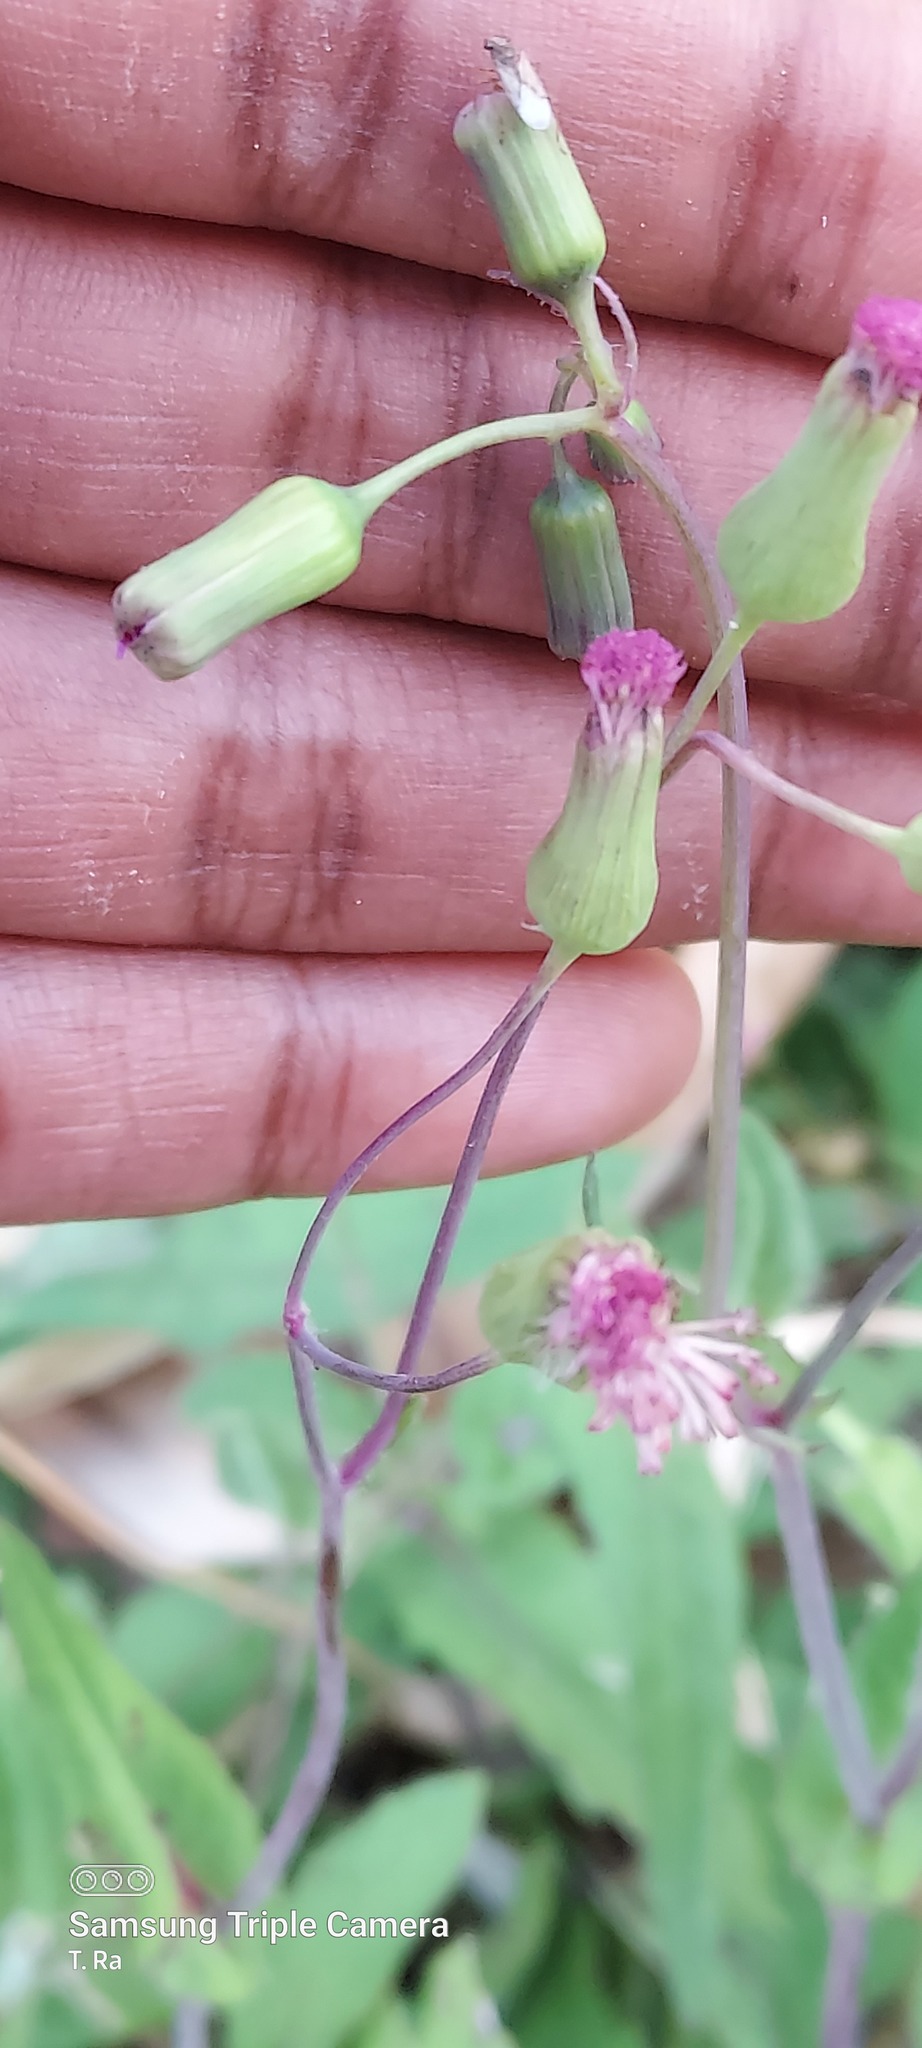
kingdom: Plantae
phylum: Tracheophyta
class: Magnoliopsida
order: Asterales
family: Asteraceae
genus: Emilia
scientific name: Emilia sonchifolia
